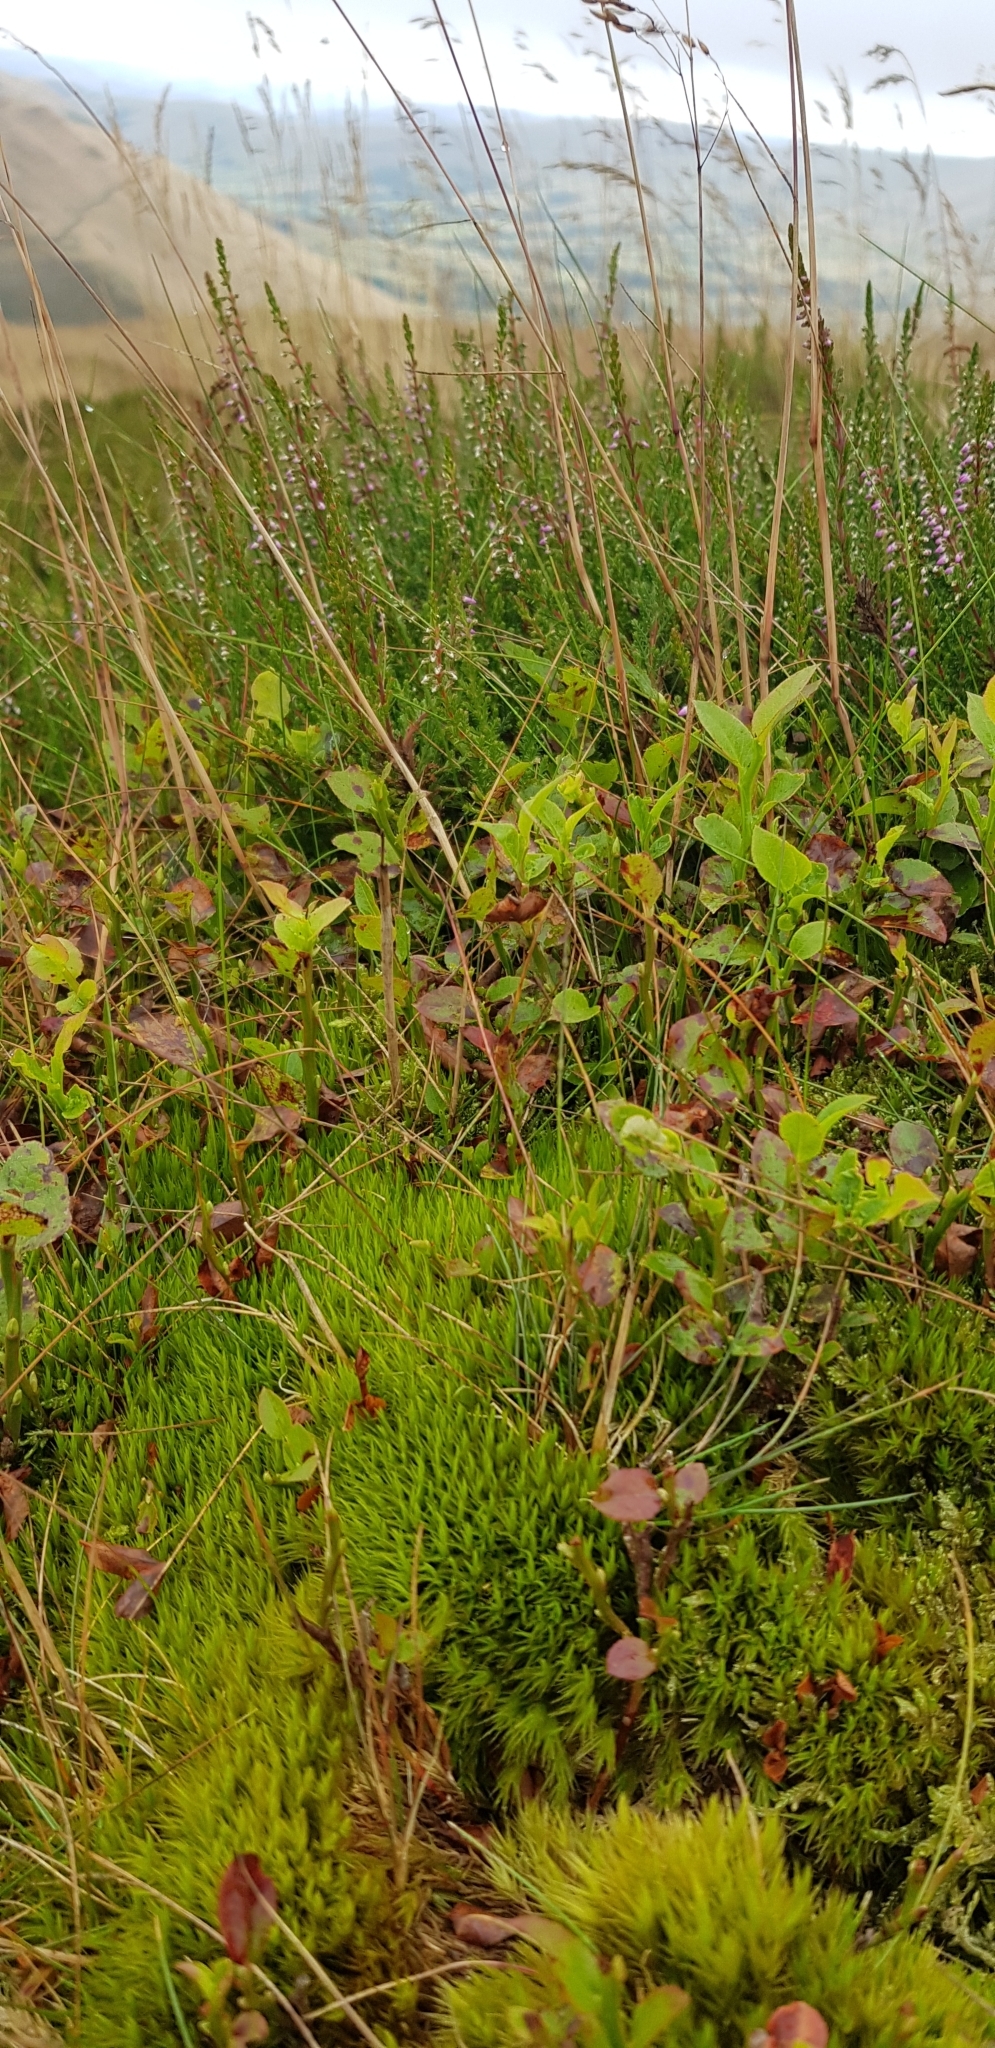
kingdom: Plantae
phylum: Bryophyta
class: Bryopsida
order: Dicranales
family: Dicranaceae
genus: Dicranum
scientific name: Dicranum scoparium
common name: Broom fork-moss
